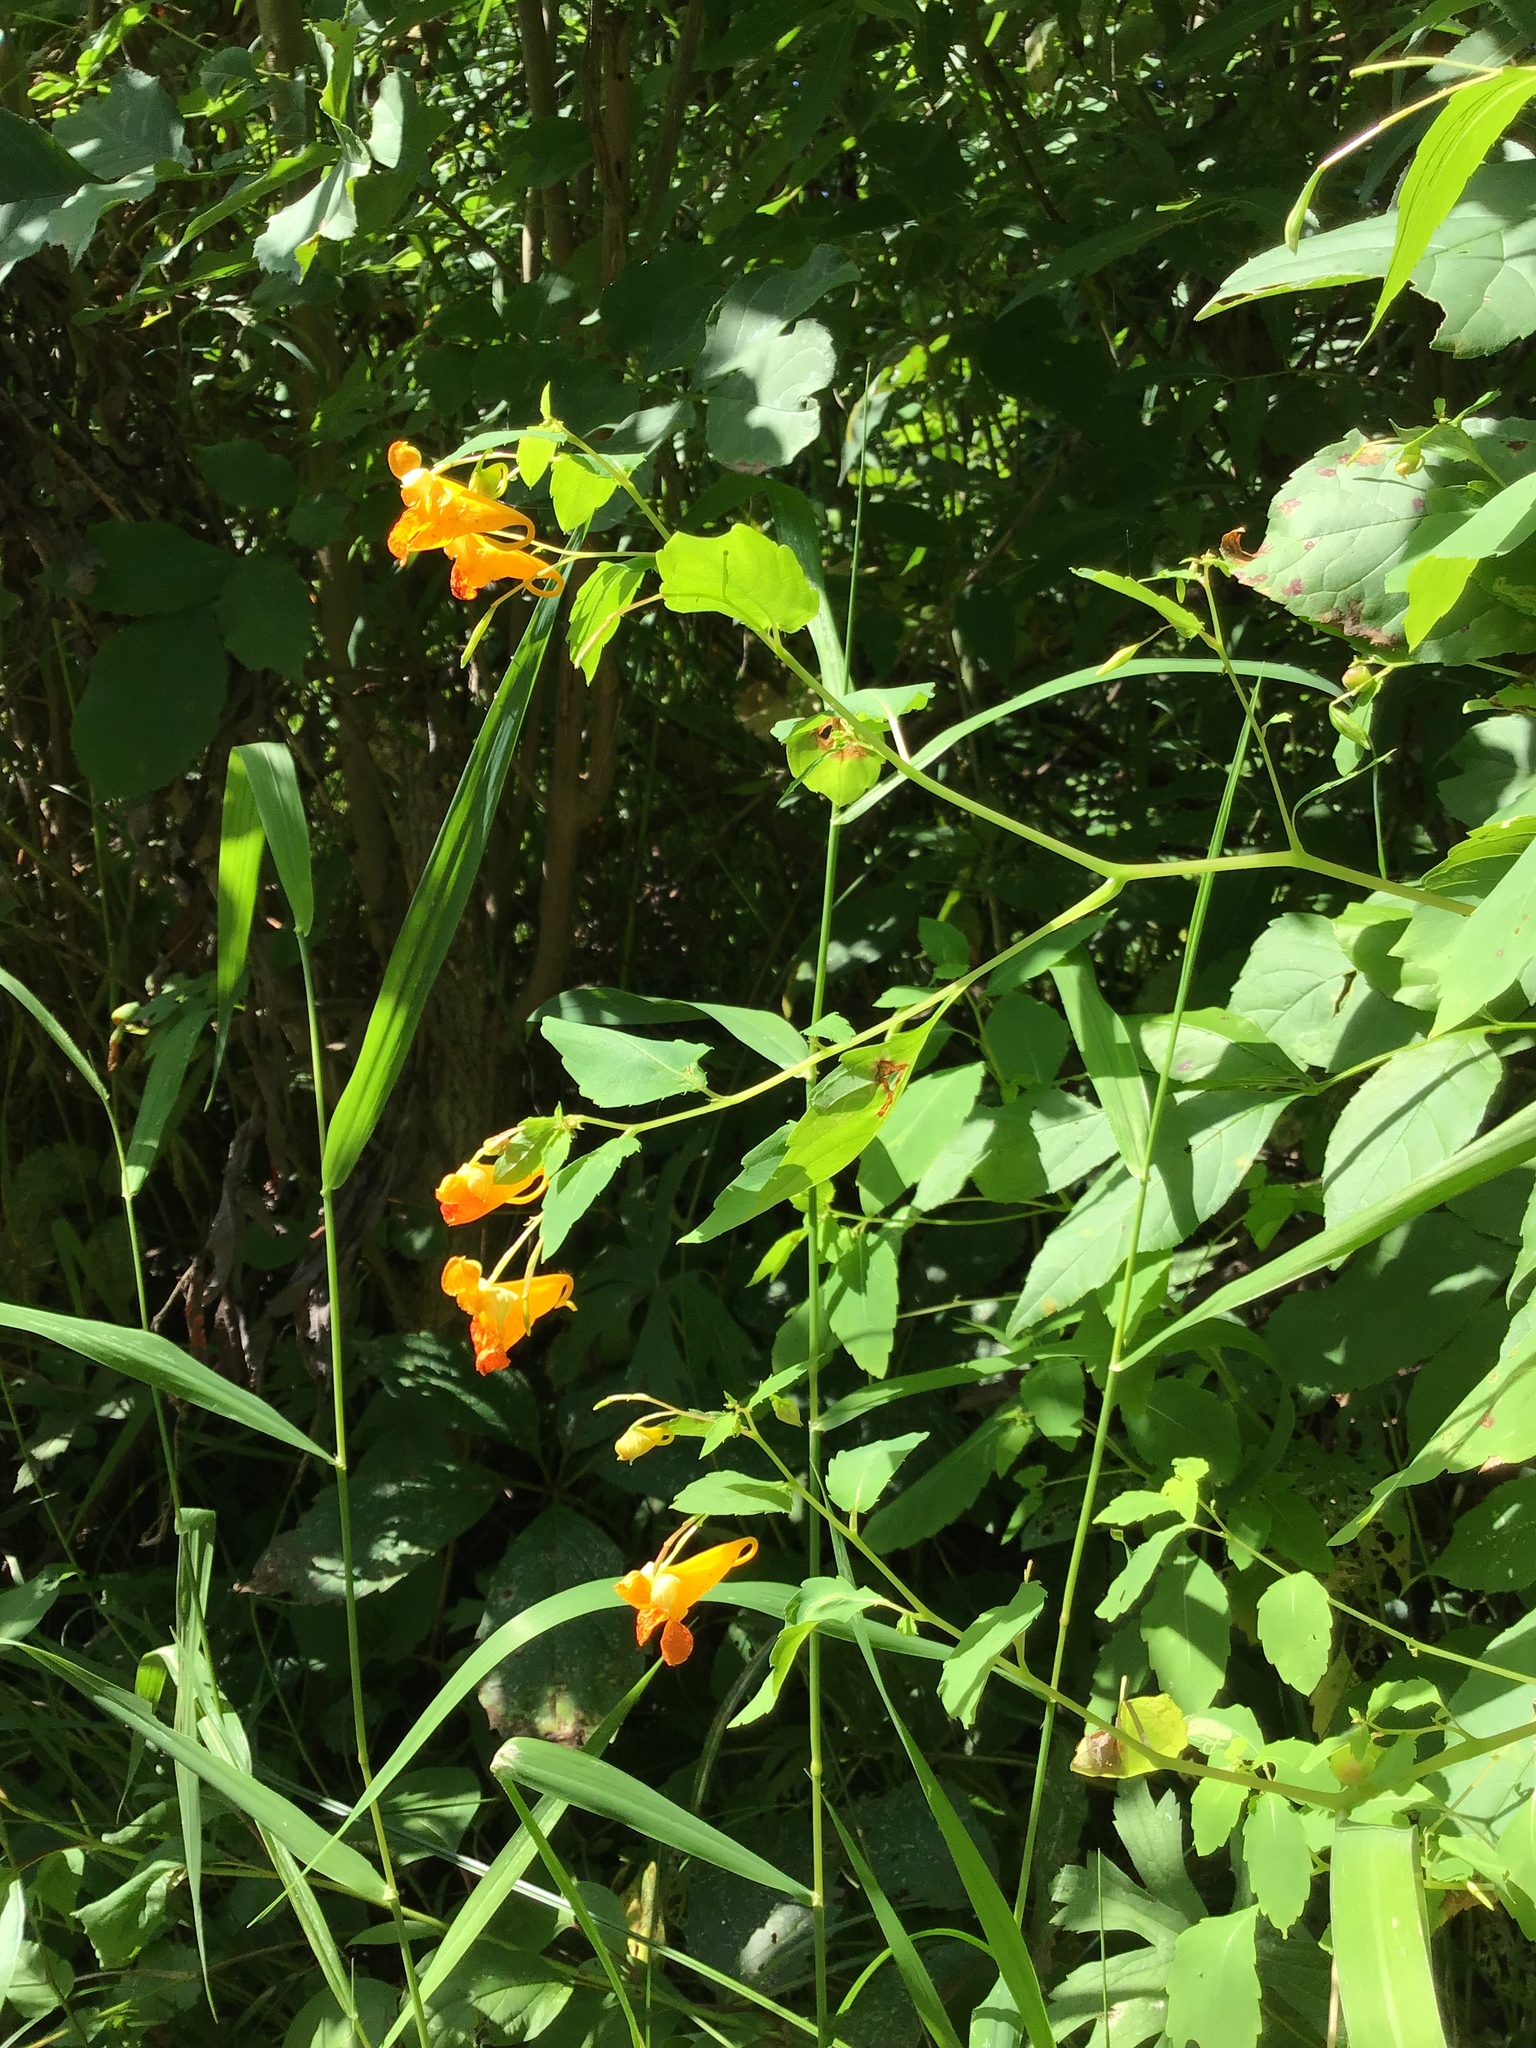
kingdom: Plantae
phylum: Tracheophyta
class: Magnoliopsida
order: Ericales
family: Balsaminaceae
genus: Impatiens
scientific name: Impatiens capensis
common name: Orange balsam
